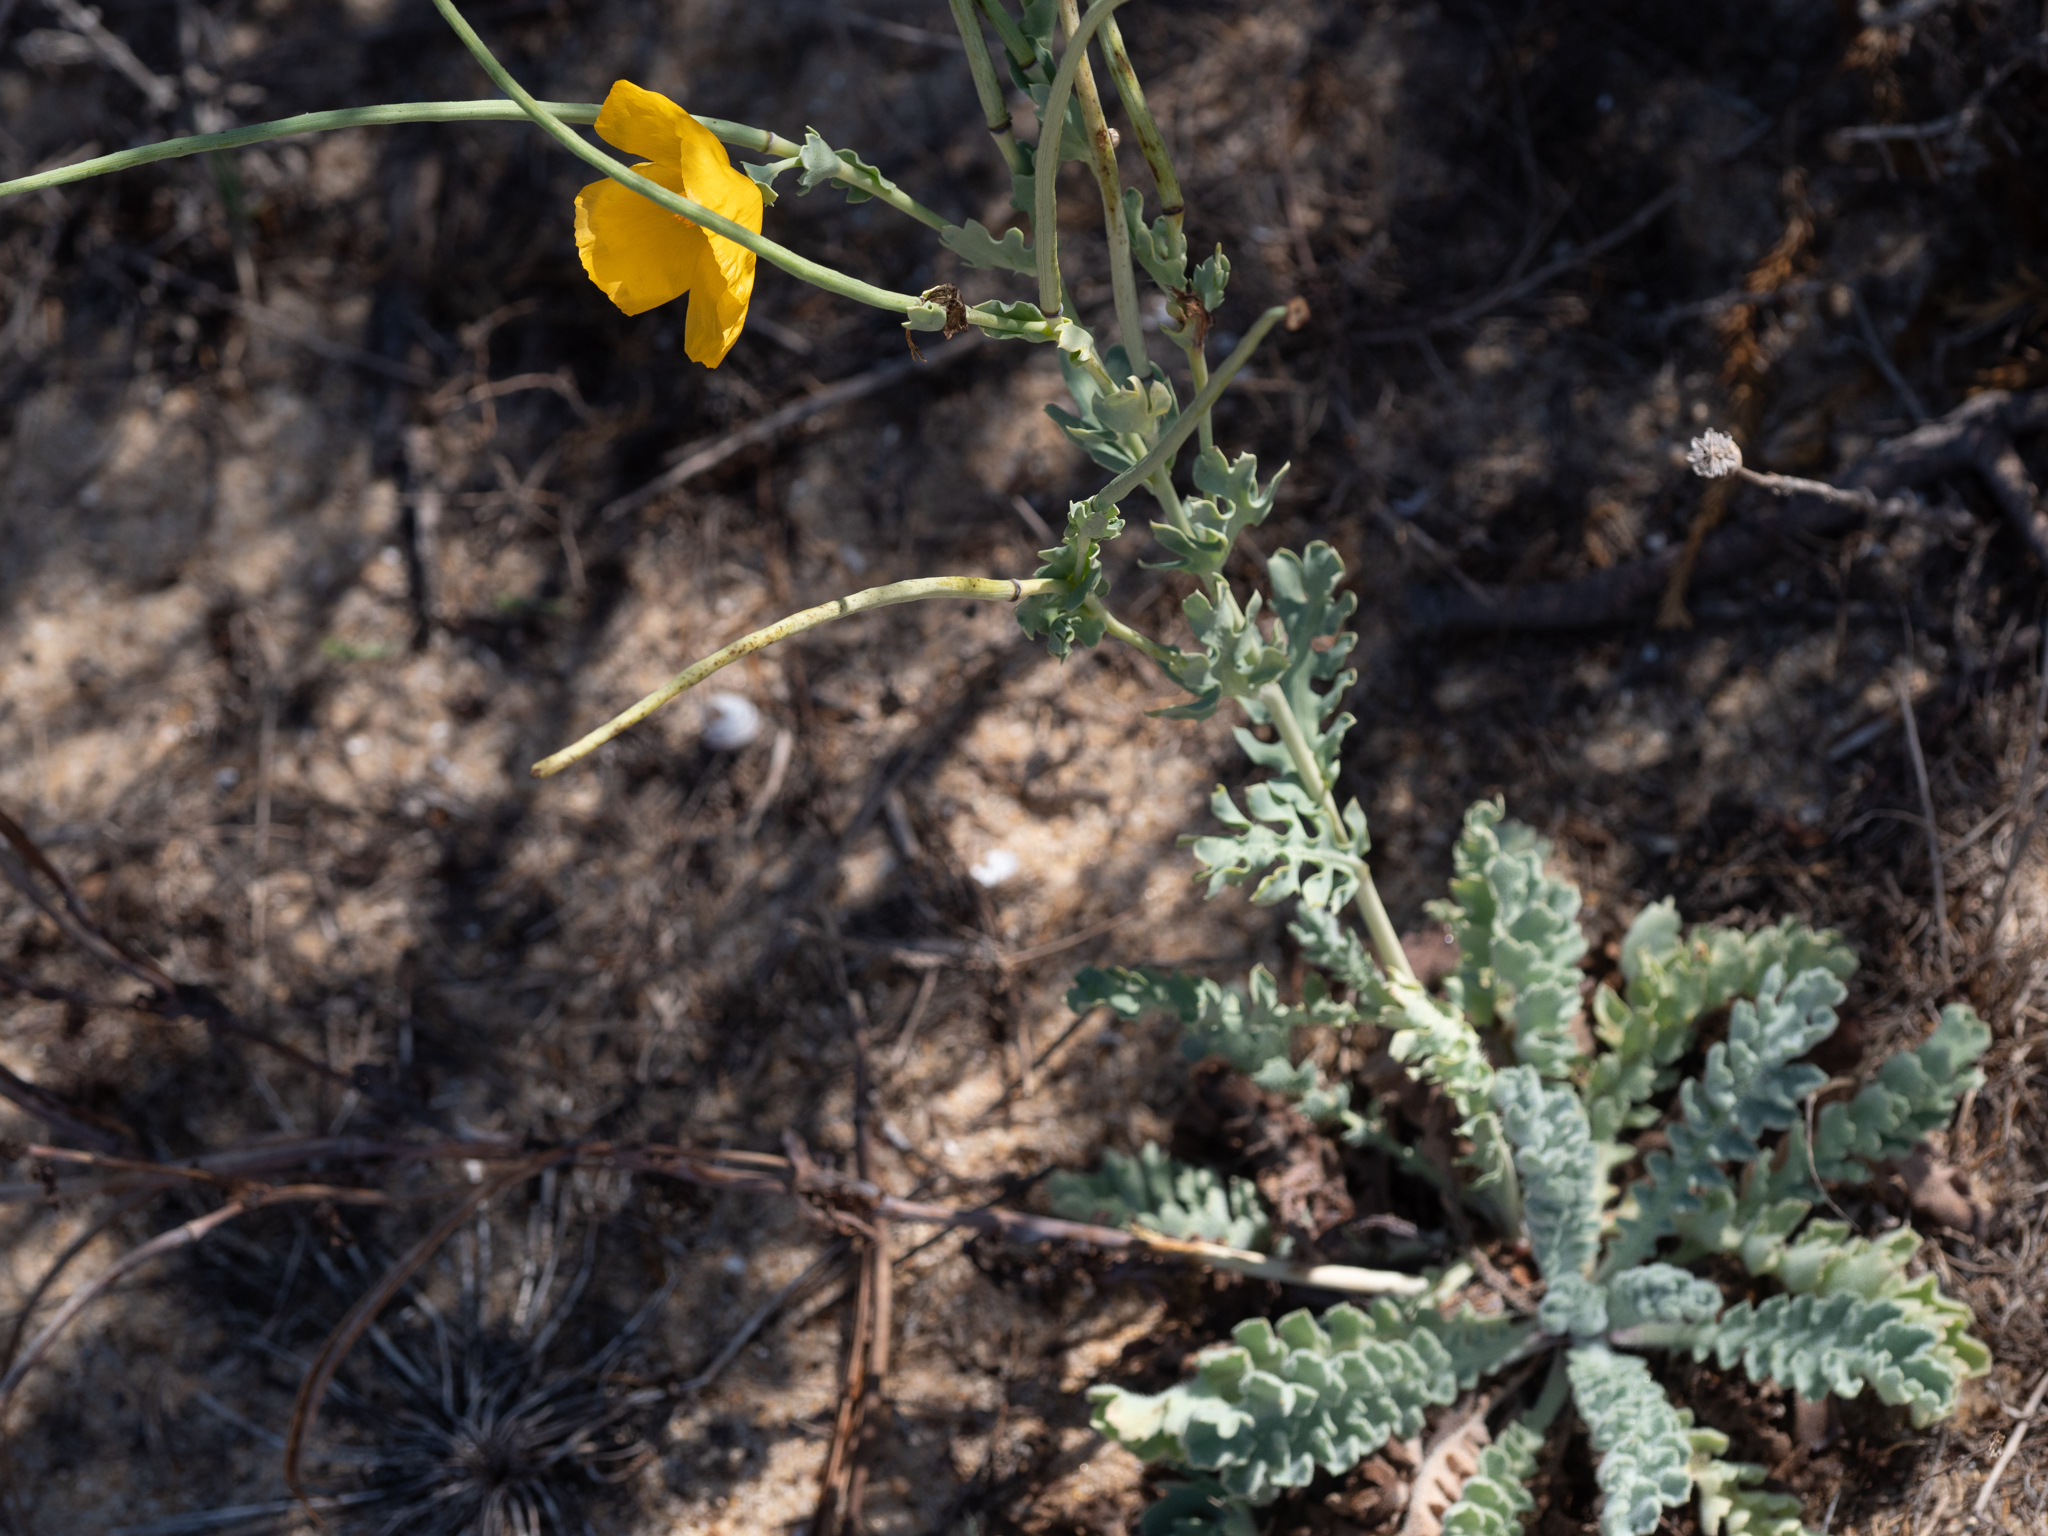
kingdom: Plantae
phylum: Tracheophyta
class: Magnoliopsida
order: Ranunculales
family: Papaveraceae
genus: Glaucium
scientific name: Glaucium flavum
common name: Yellow horned-poppy
